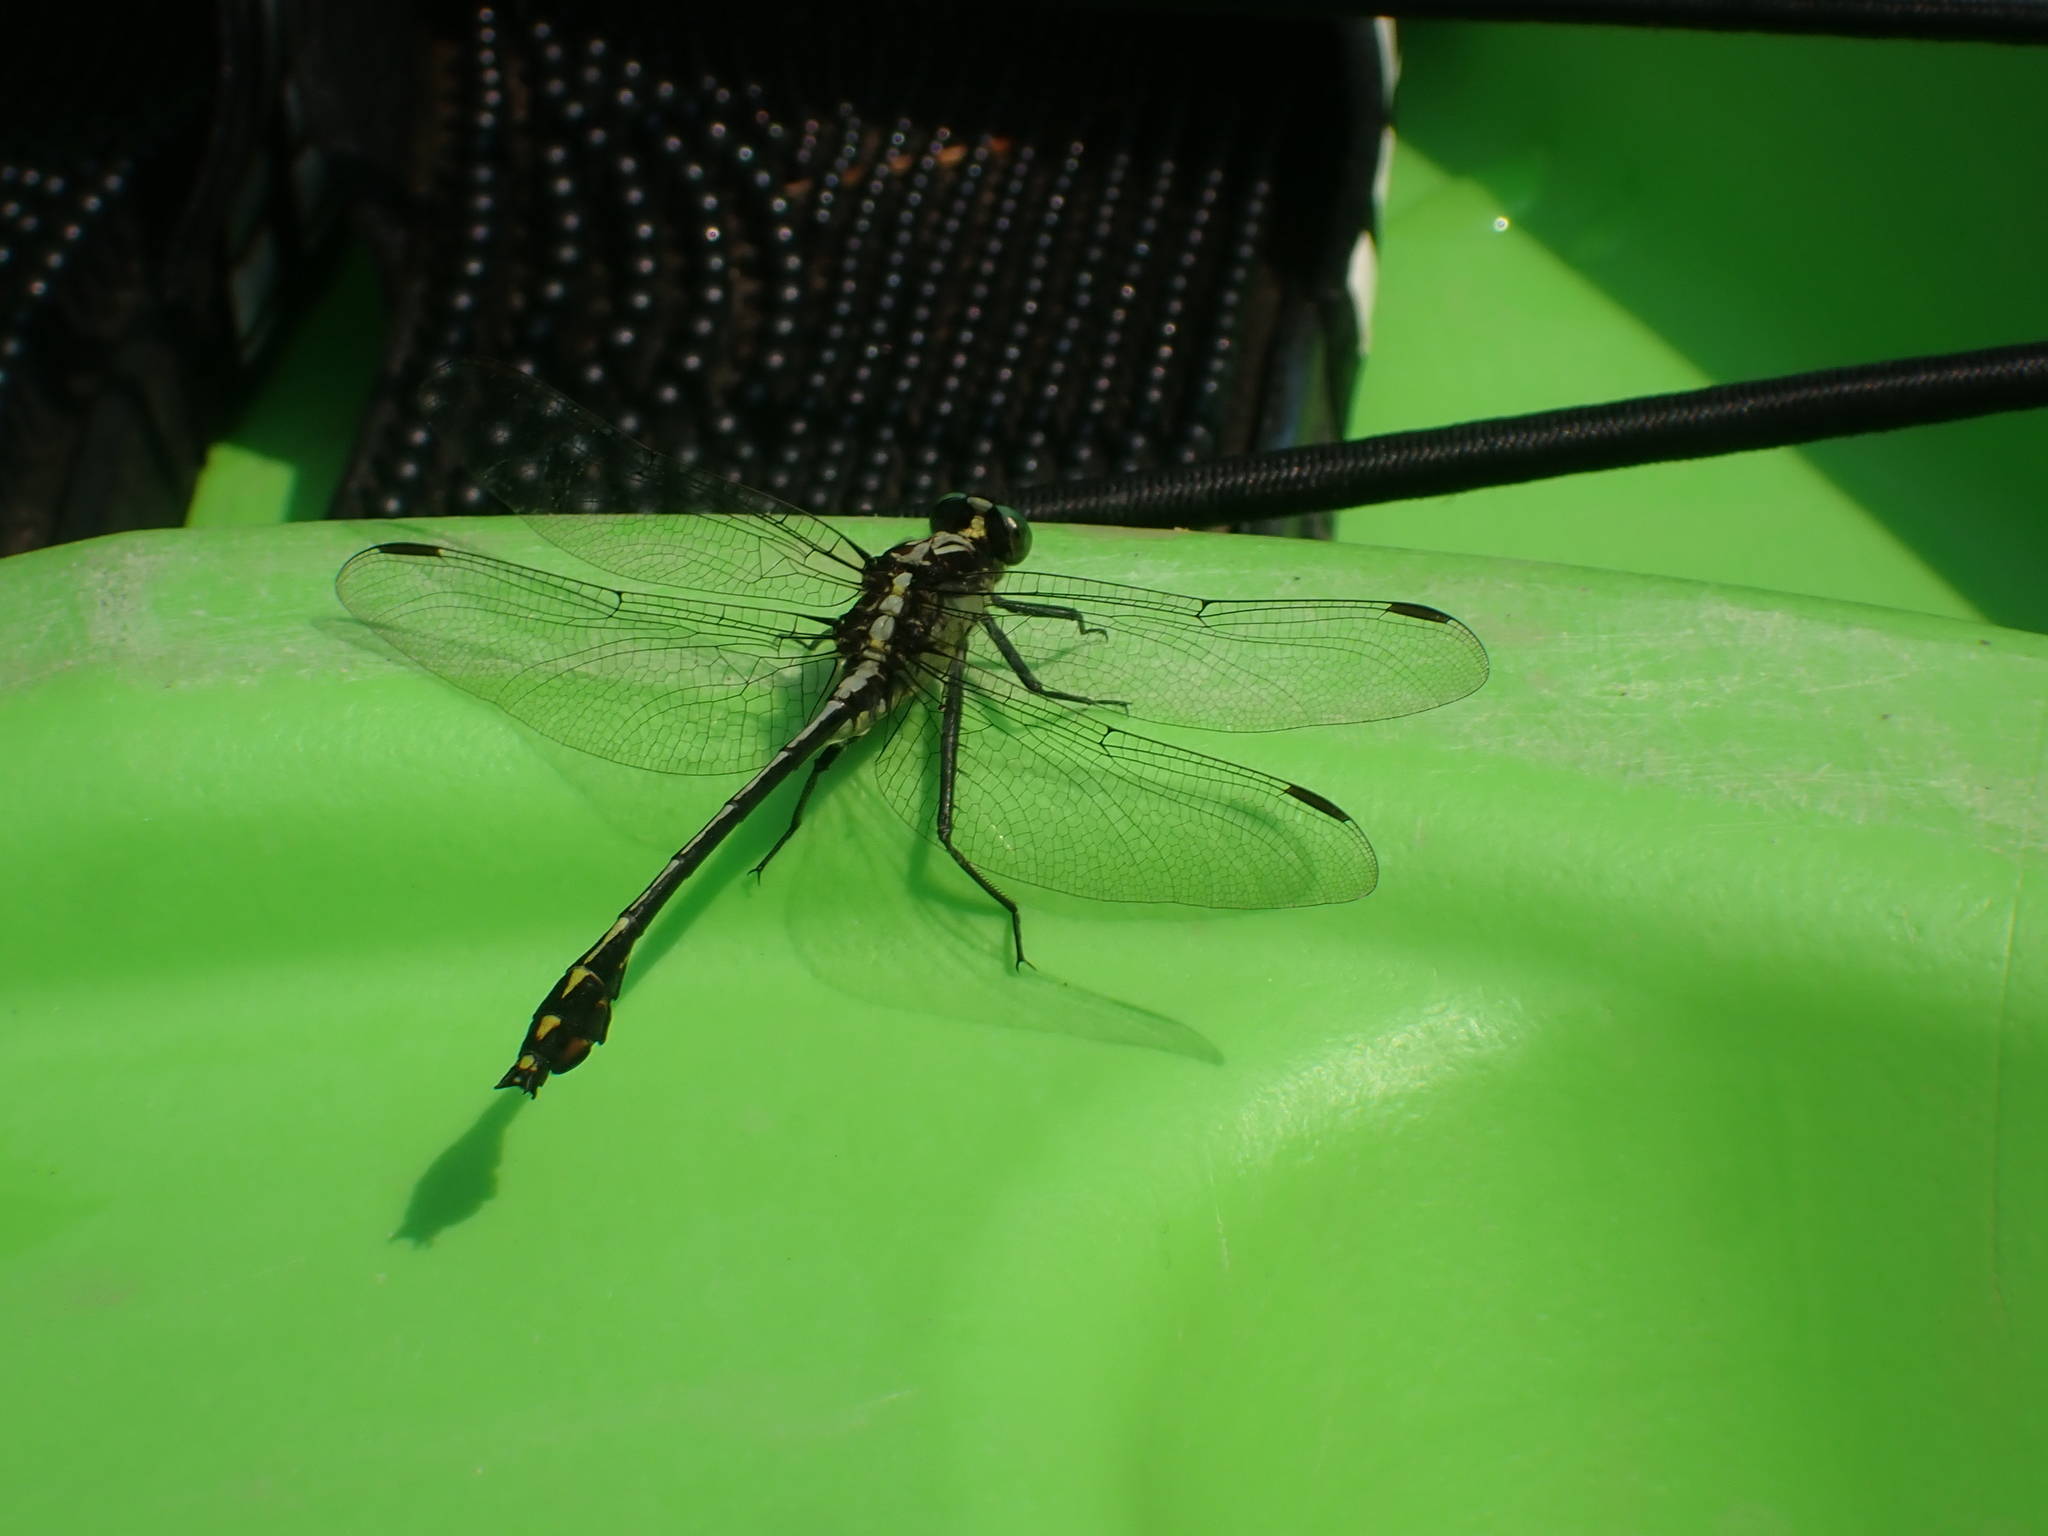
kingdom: Animalia
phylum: Arthropoda
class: Insecta
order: Odonata
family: Gomphidae
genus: Dromogomphus
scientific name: Dromogomphus spinosus
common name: Black-shouldered spinyleg
